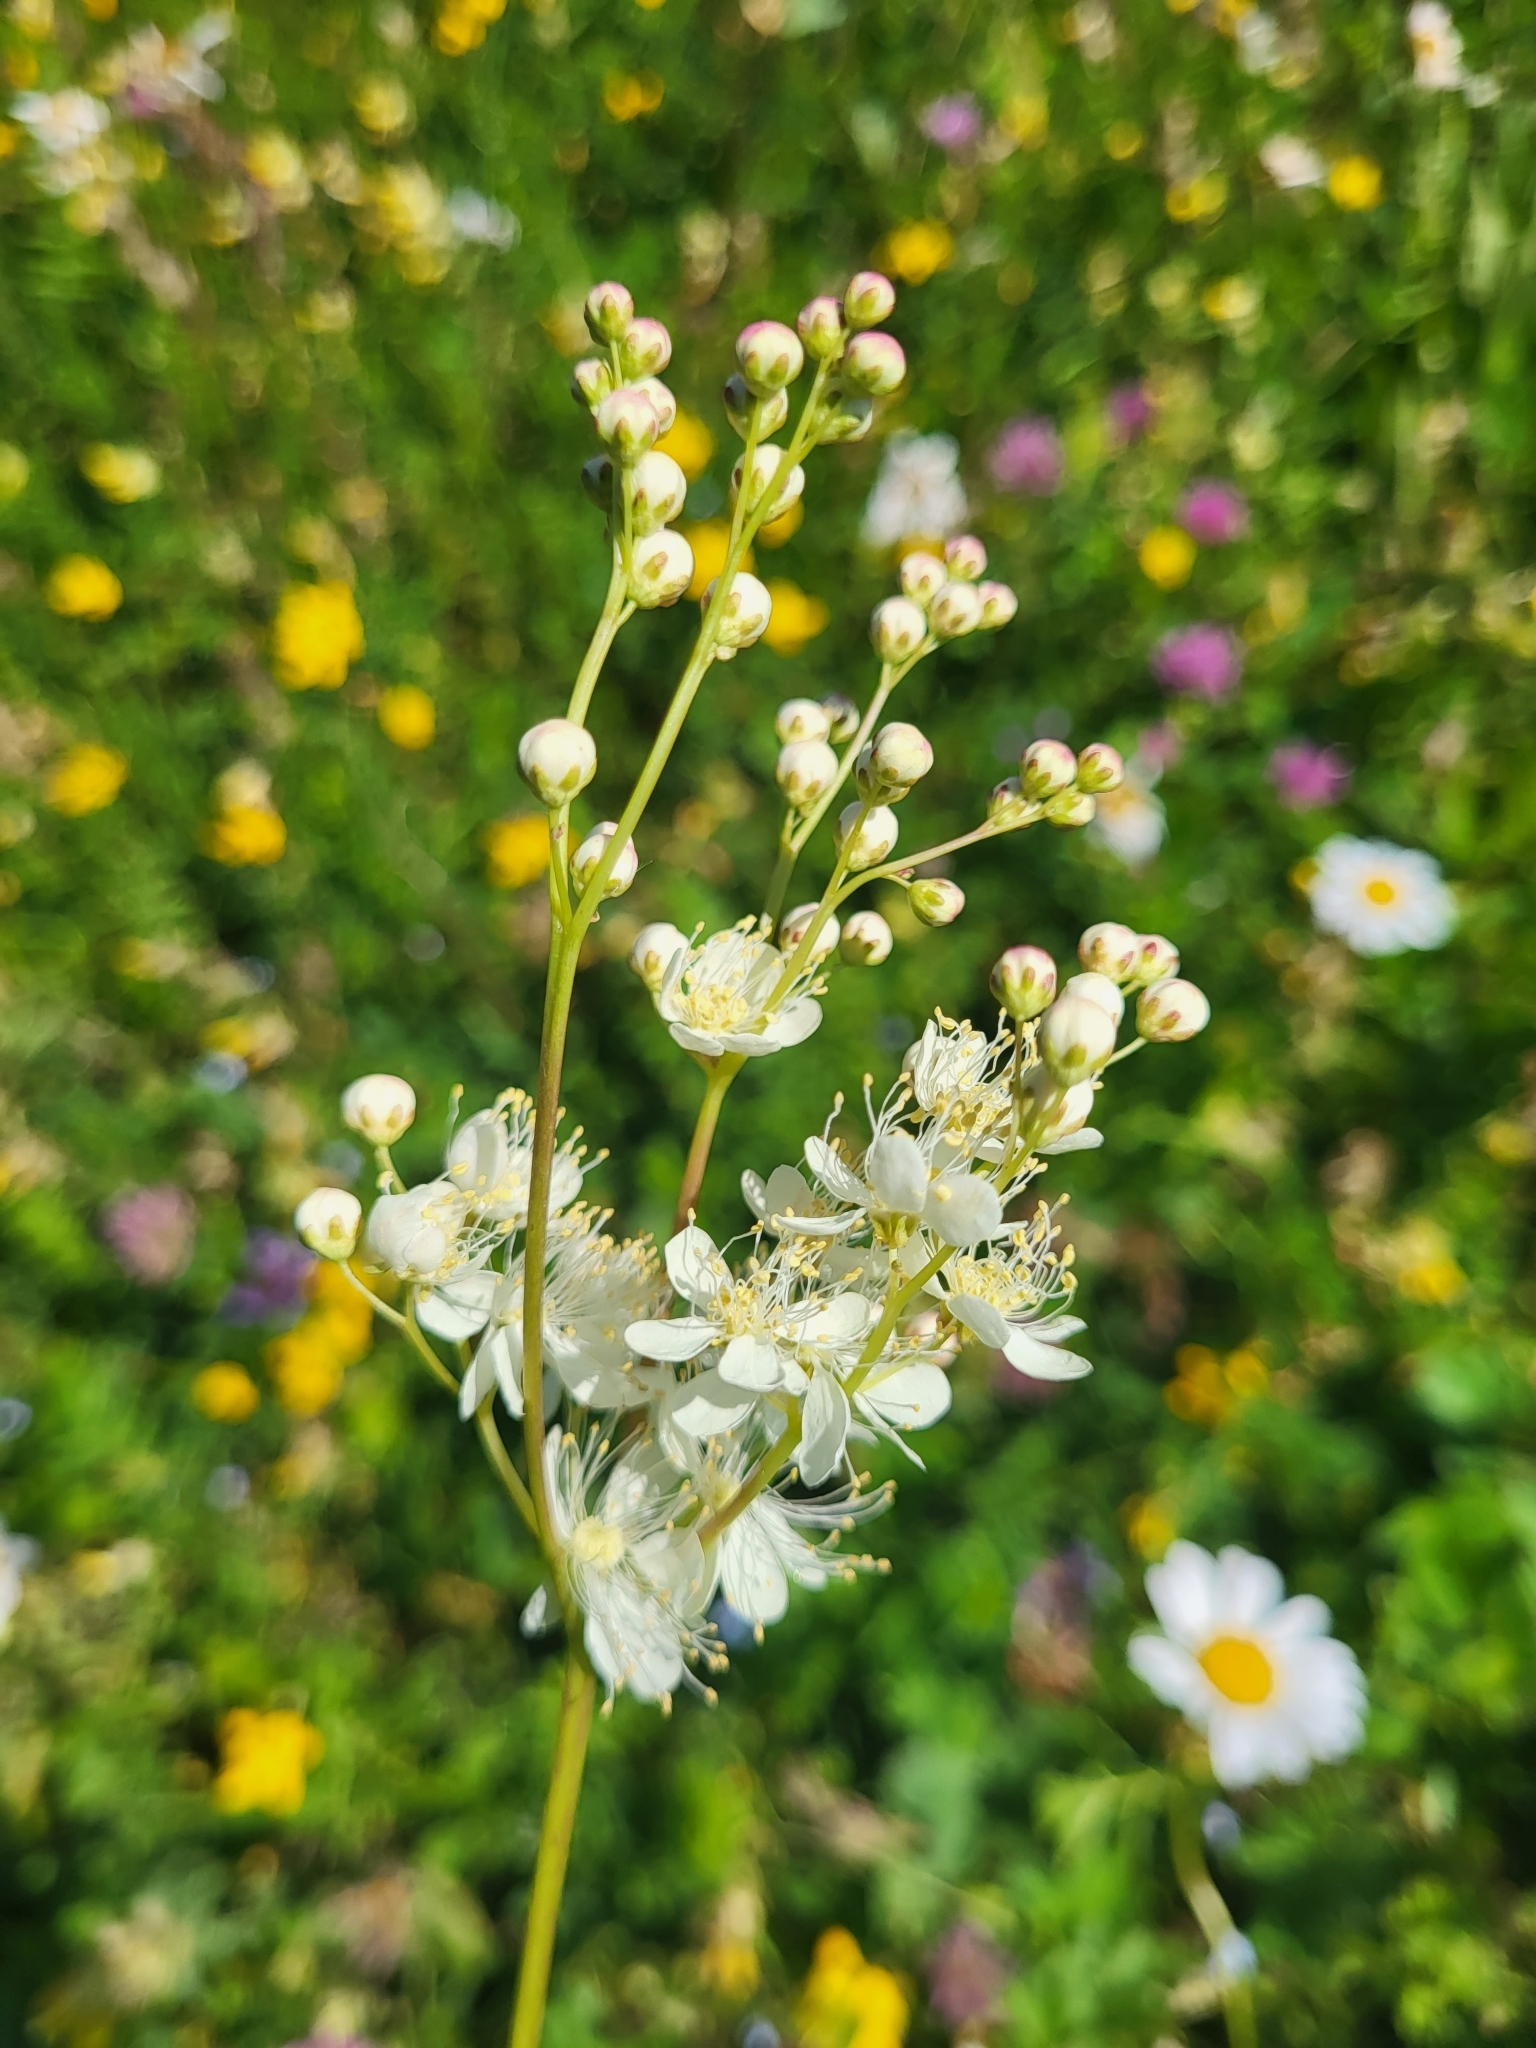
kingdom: Plantae
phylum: Tracheophyta
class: Magnoliopsida
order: Rosales
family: Rosaceae
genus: Filipendula
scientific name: Filipendula vulgaris
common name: Dropwort
